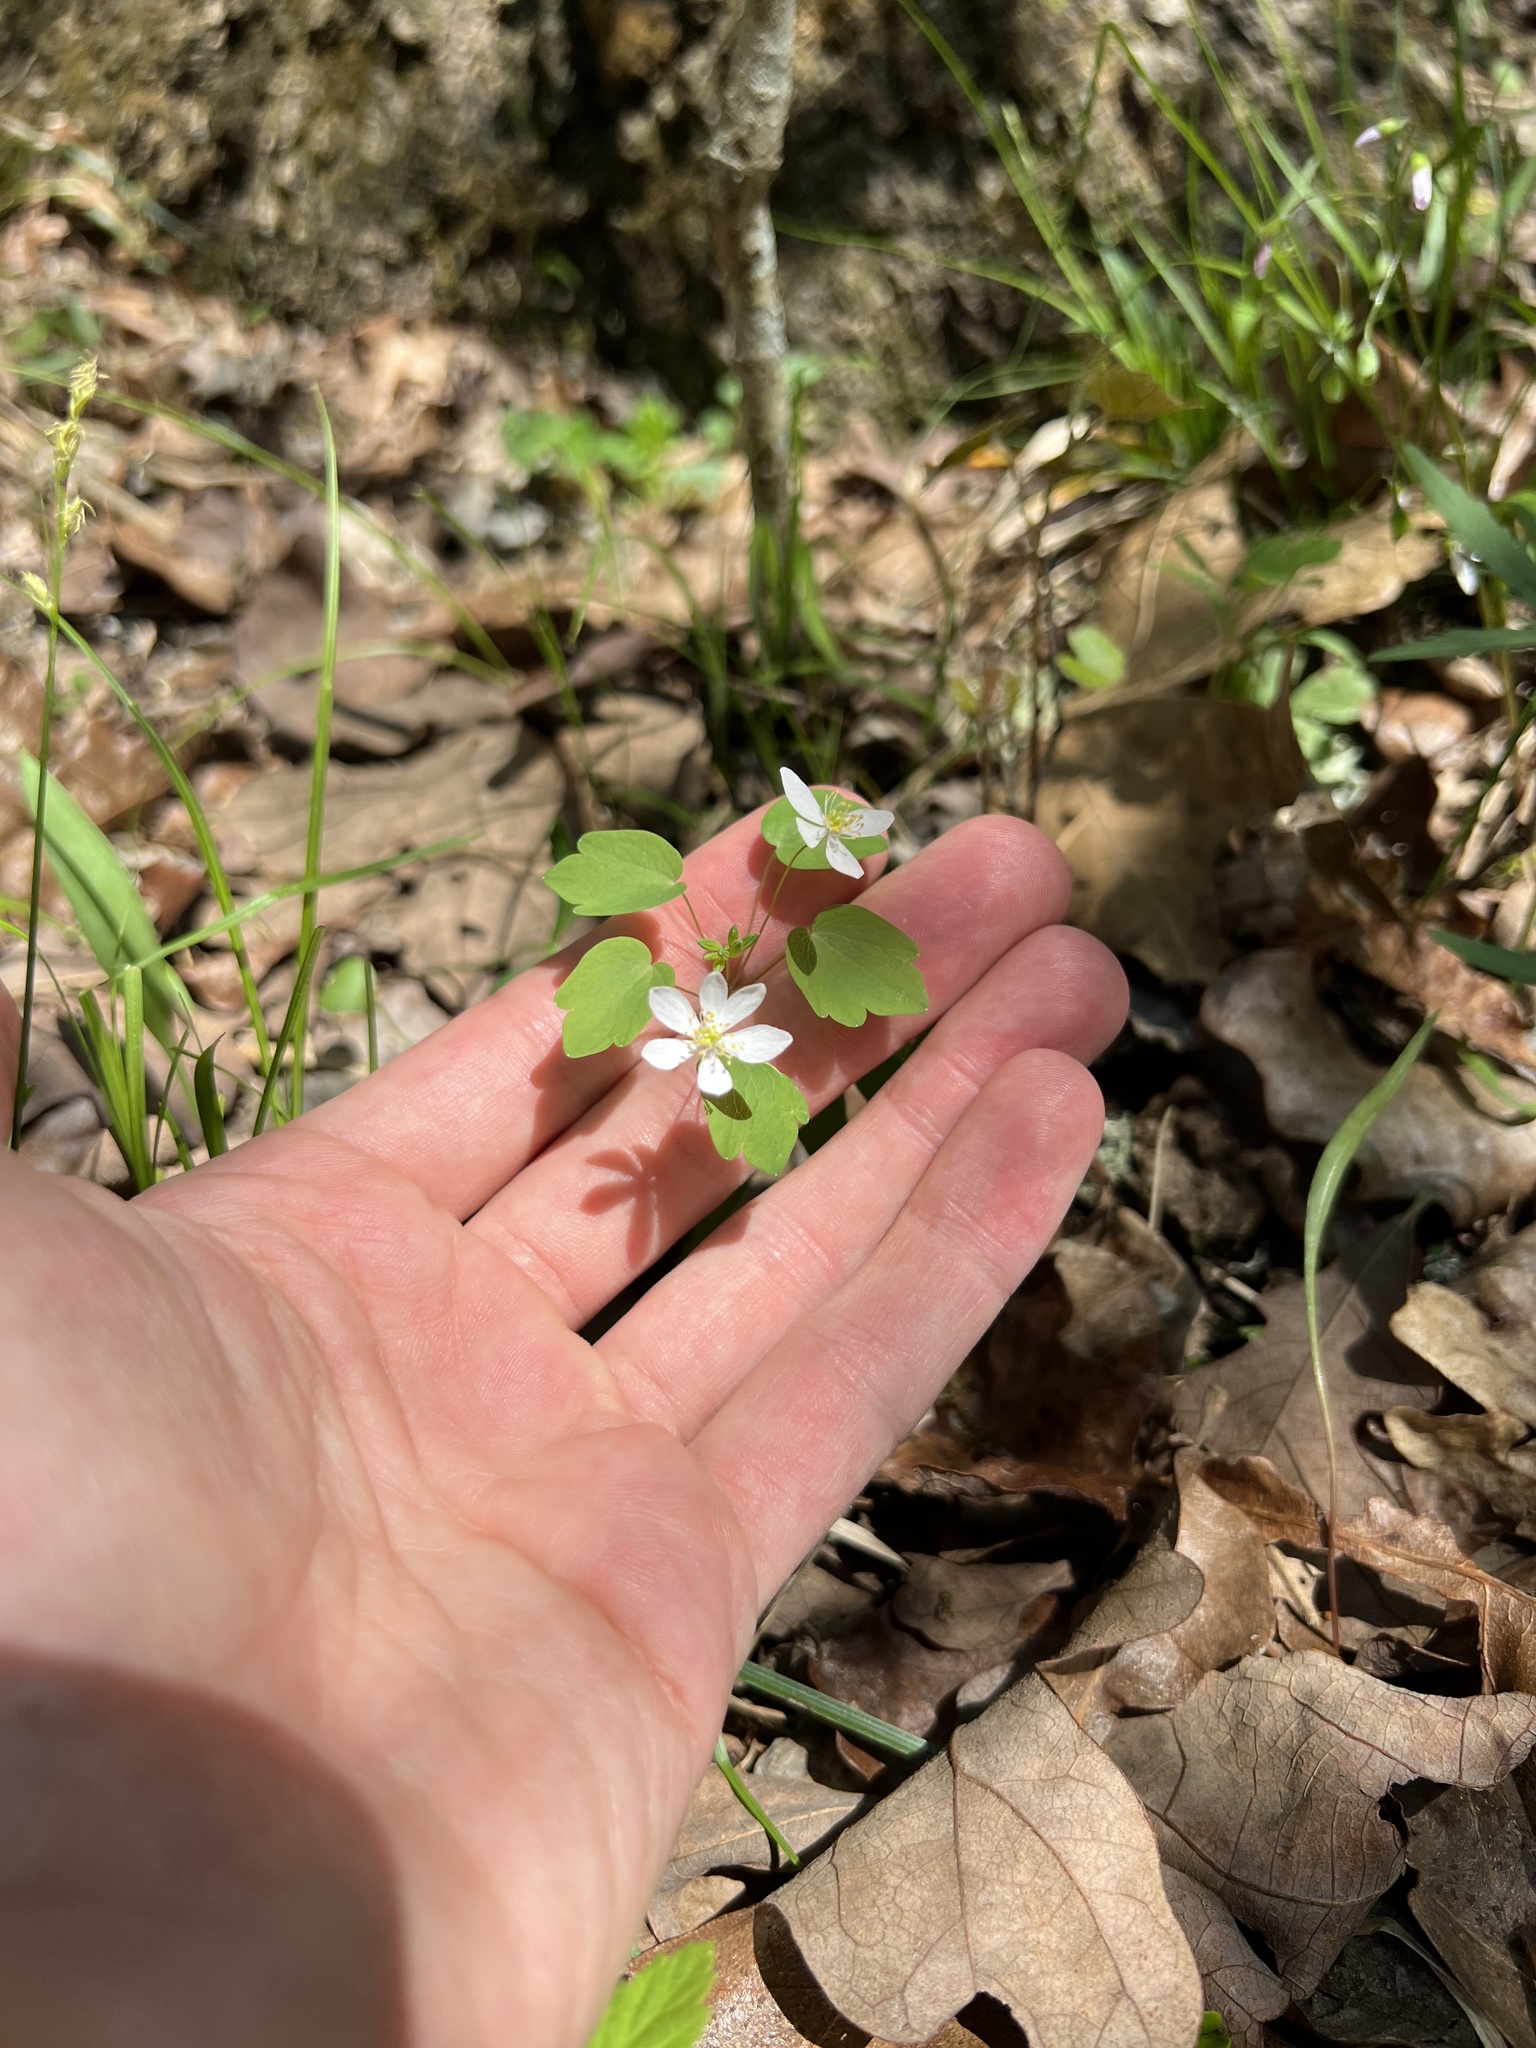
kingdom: Plantae
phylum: Tracheophyta
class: Magnoliopsida
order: Ranunculales
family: Ranunculaceae
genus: Thalictrum
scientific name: Thalictrum thalictroides
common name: Rue-anemone
